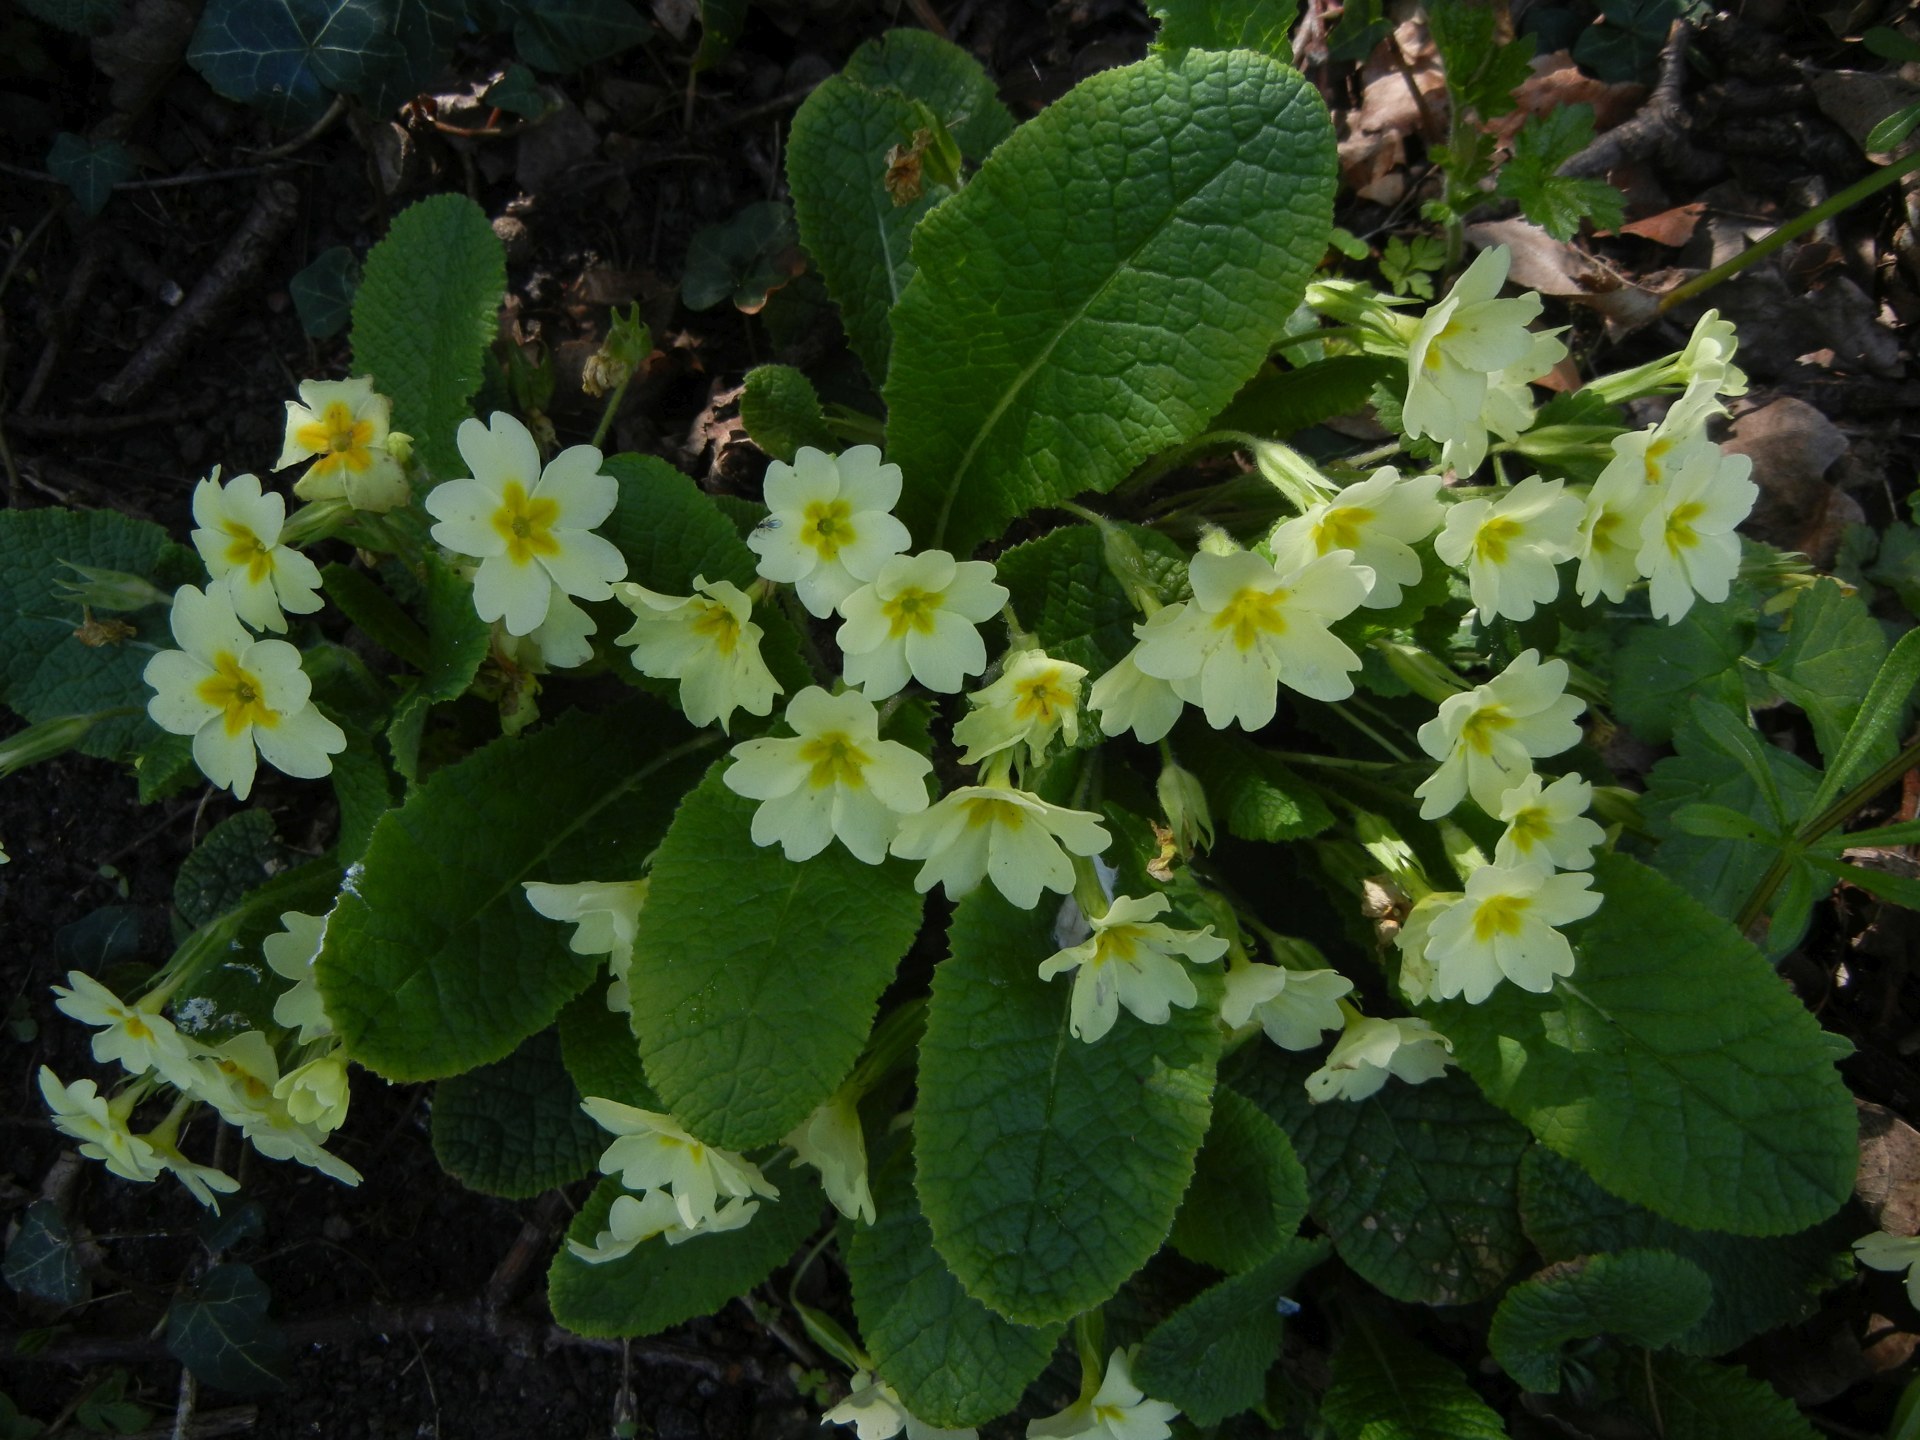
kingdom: Plantae
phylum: Tracheophyta
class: Magnoliopsida
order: Ericales
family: Primulaceae
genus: Primula
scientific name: Primula vulgaris
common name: Primrose
